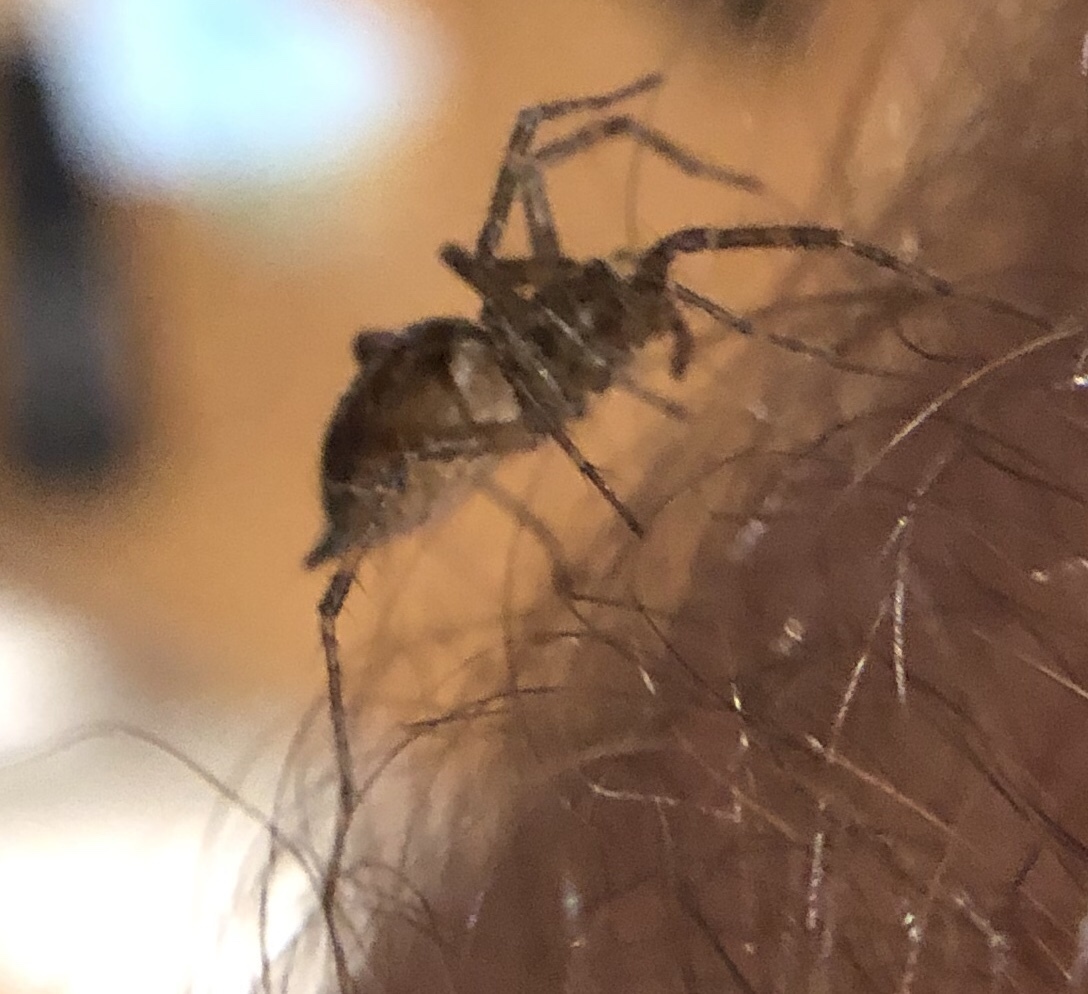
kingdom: Animalia
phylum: Arthropoda
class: Arachnida
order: Araneae
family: Agelenidae
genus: Agelenopsis
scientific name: Agelenopsis
